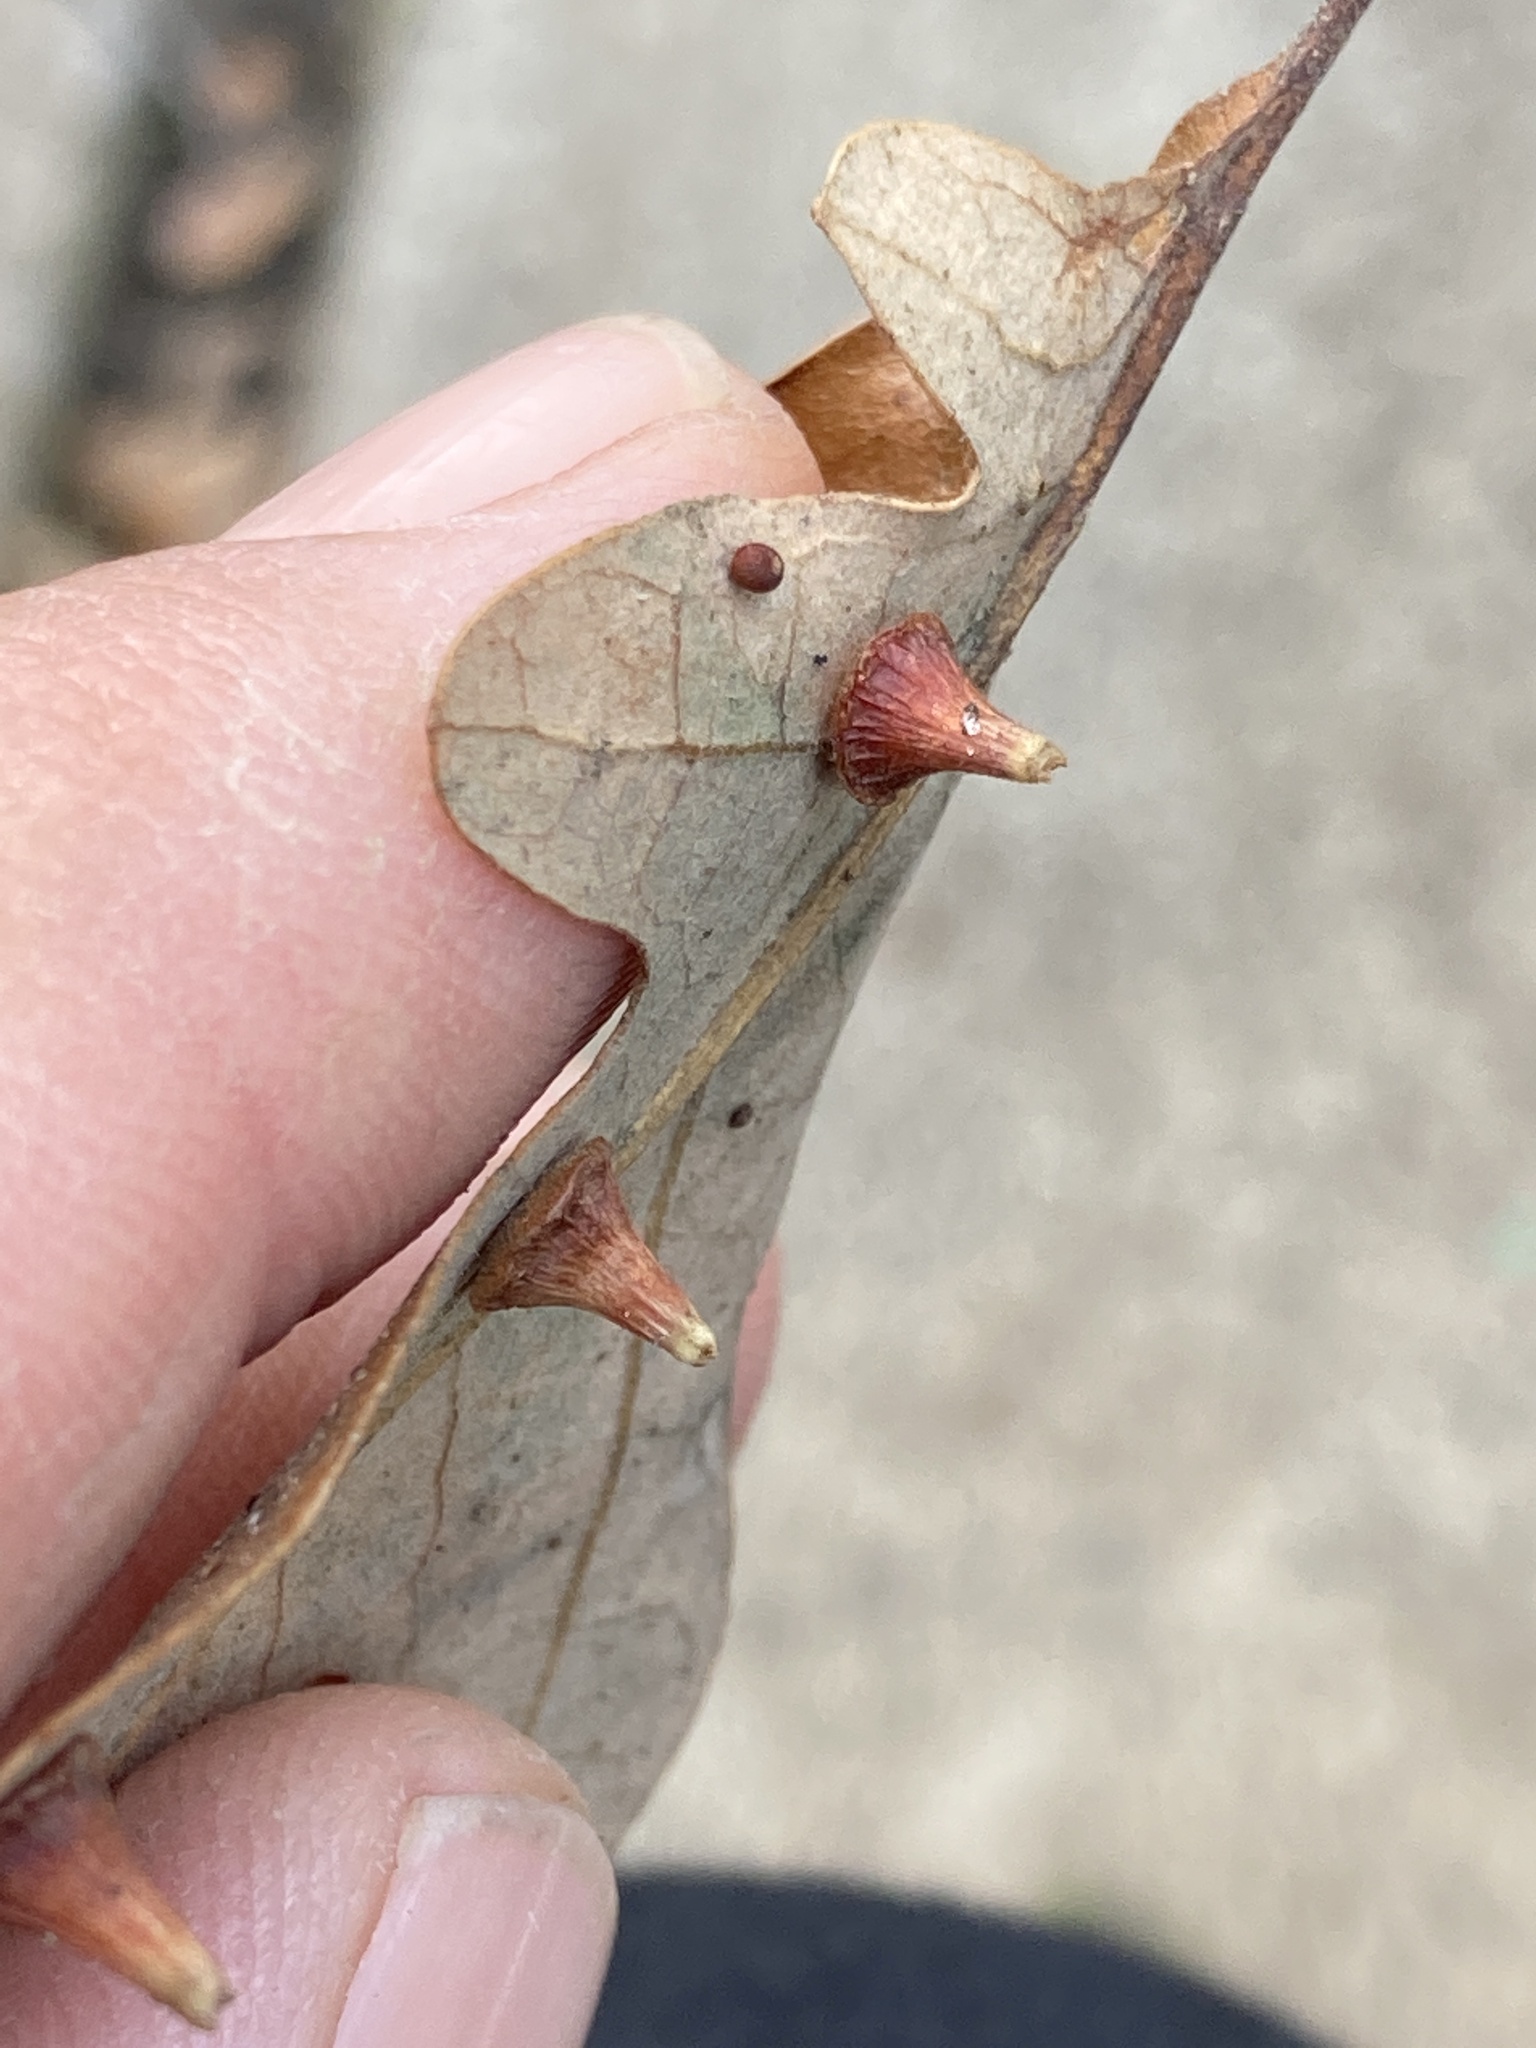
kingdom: Animalia
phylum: Arthropoda
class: Insecta
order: Hymenoptera
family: Cynipidae
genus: Andricus
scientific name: Andricus
